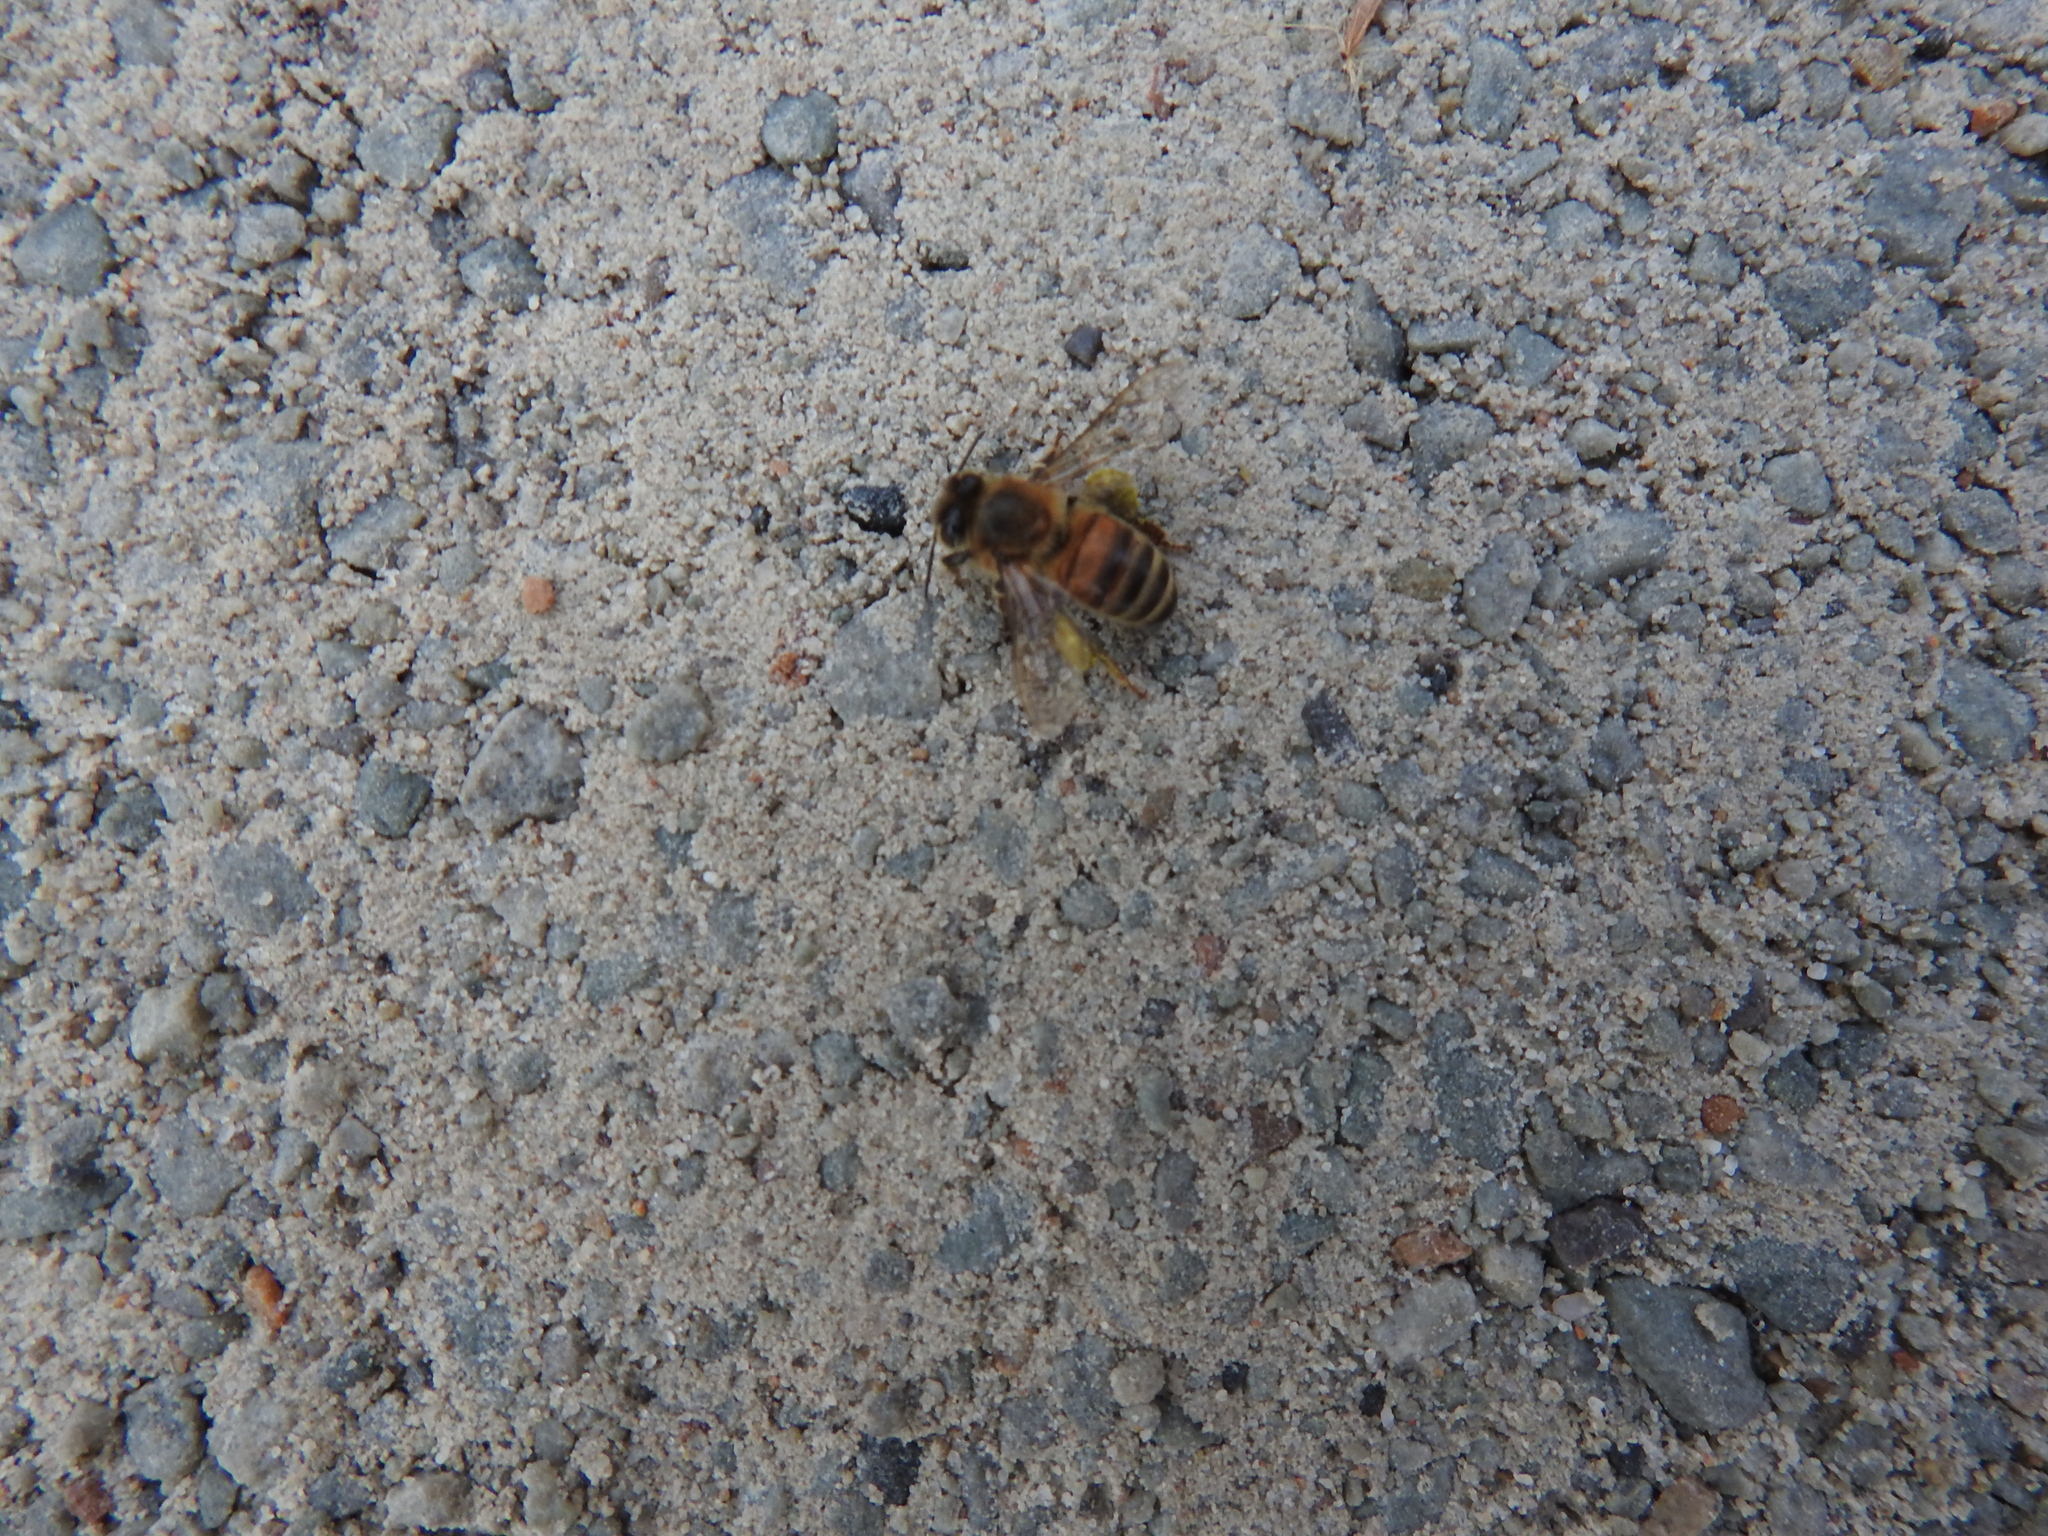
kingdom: Animalia
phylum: Arthropoda
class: Insecta
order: Hymenoptera
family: Apidae
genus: Apis
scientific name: Apis mellifera
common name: Honey bee
